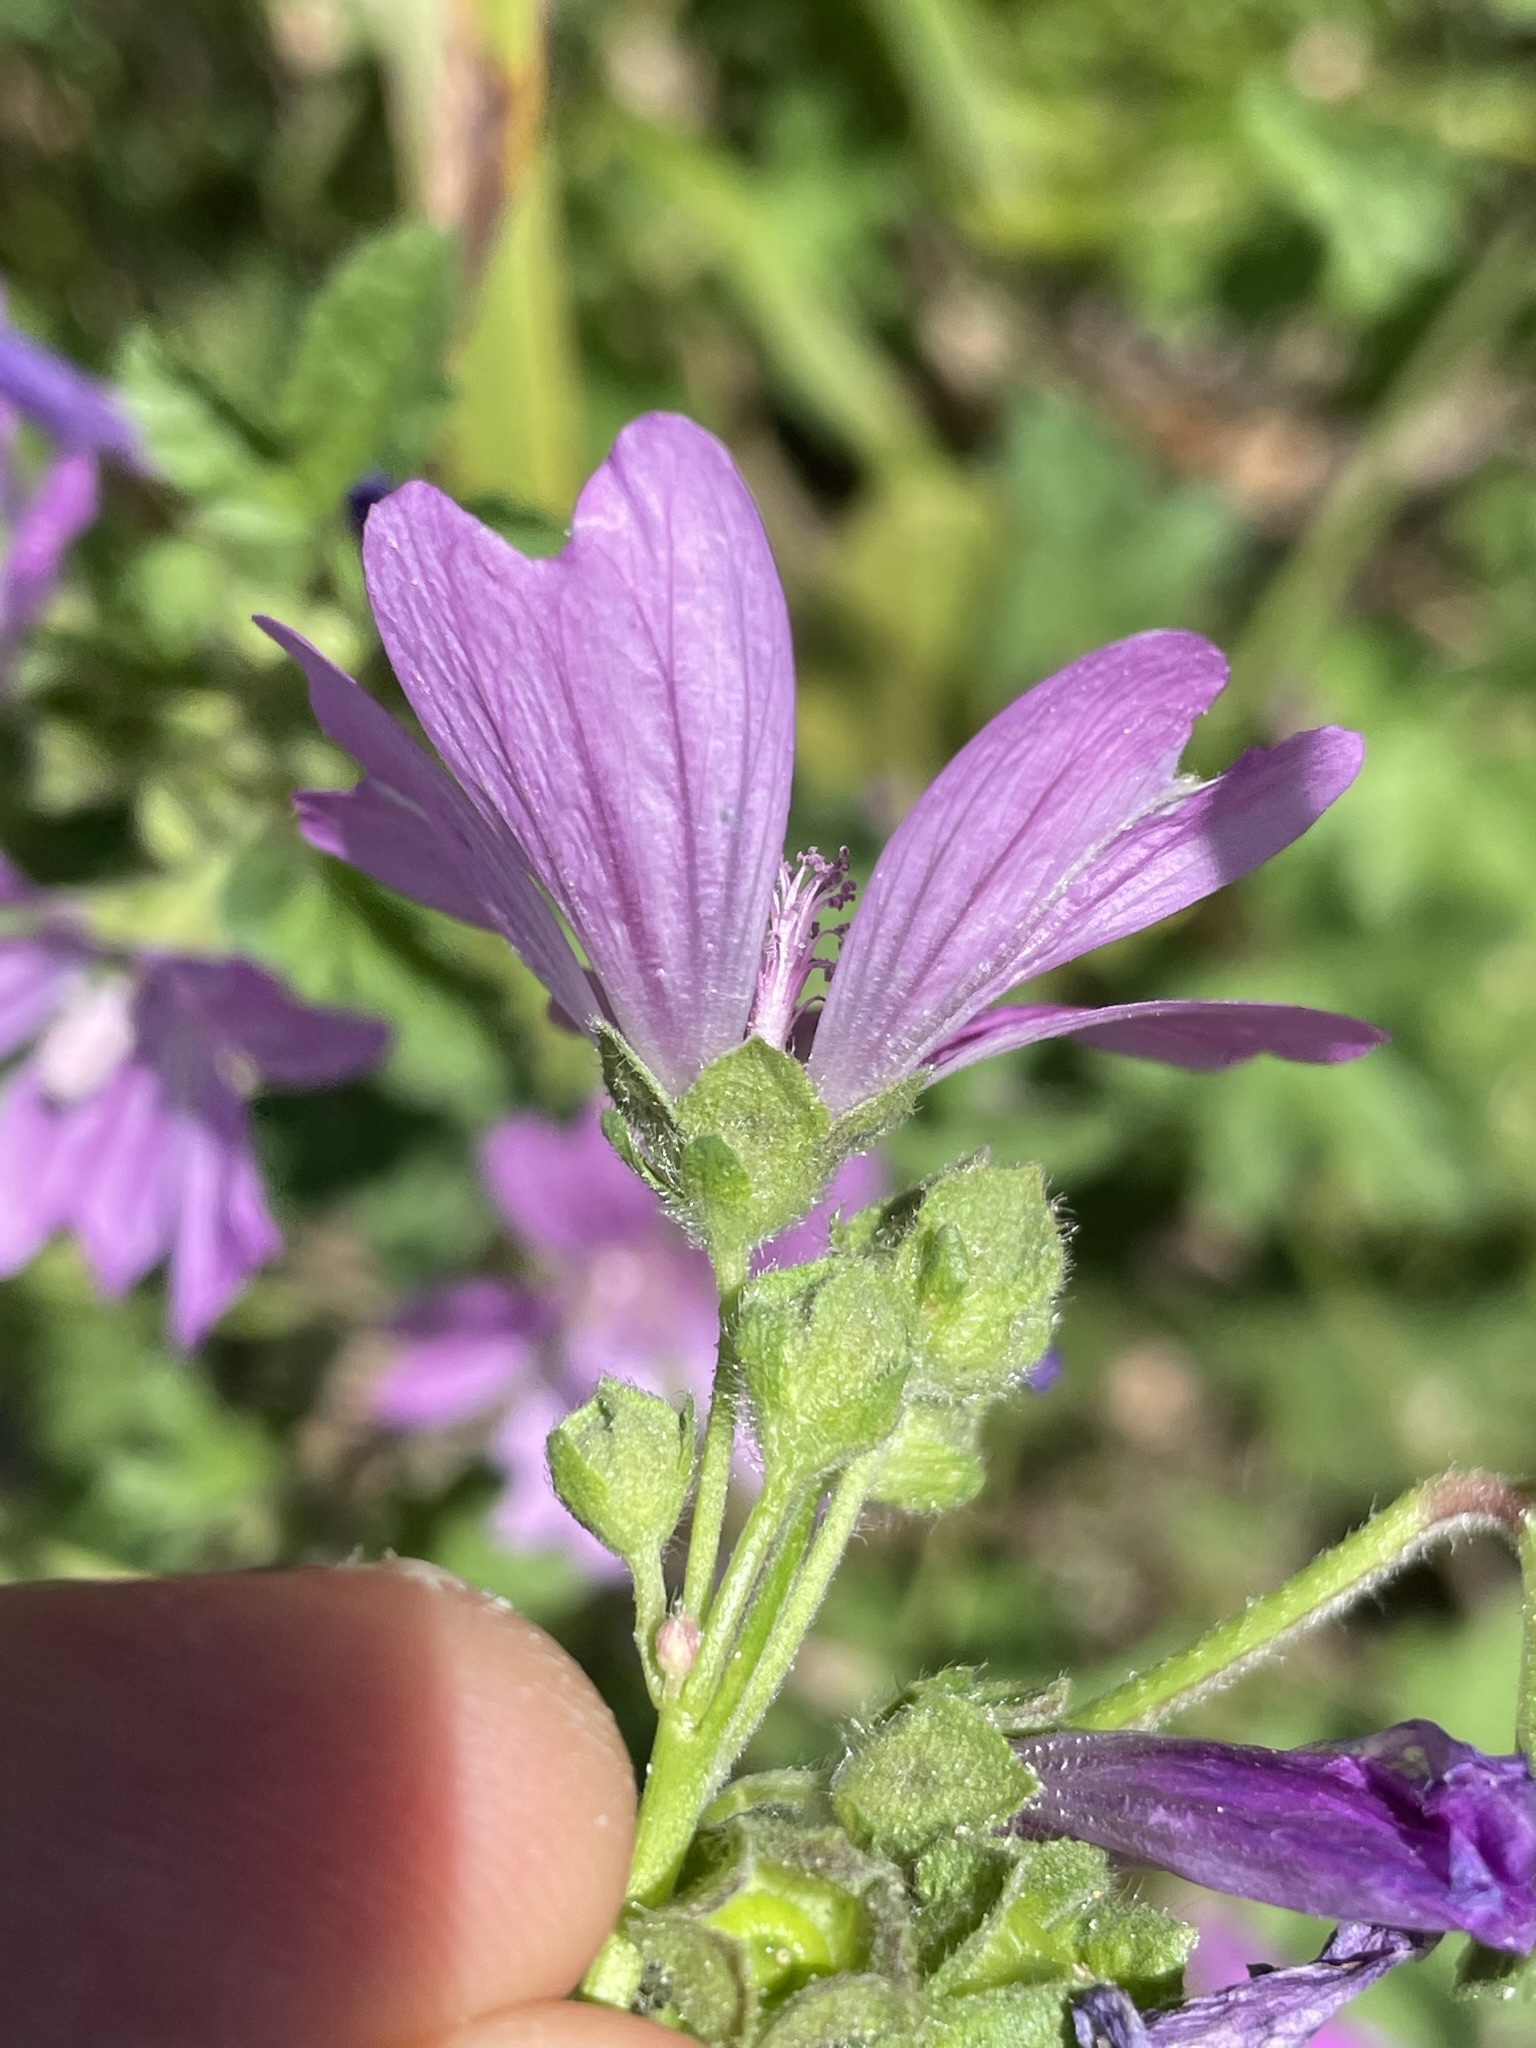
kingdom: Plantae
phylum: Tracheophyta
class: Magnoliopsida
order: Malvales
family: Malvaceae
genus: Malva
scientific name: Malva sylvestris
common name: Common mallow
